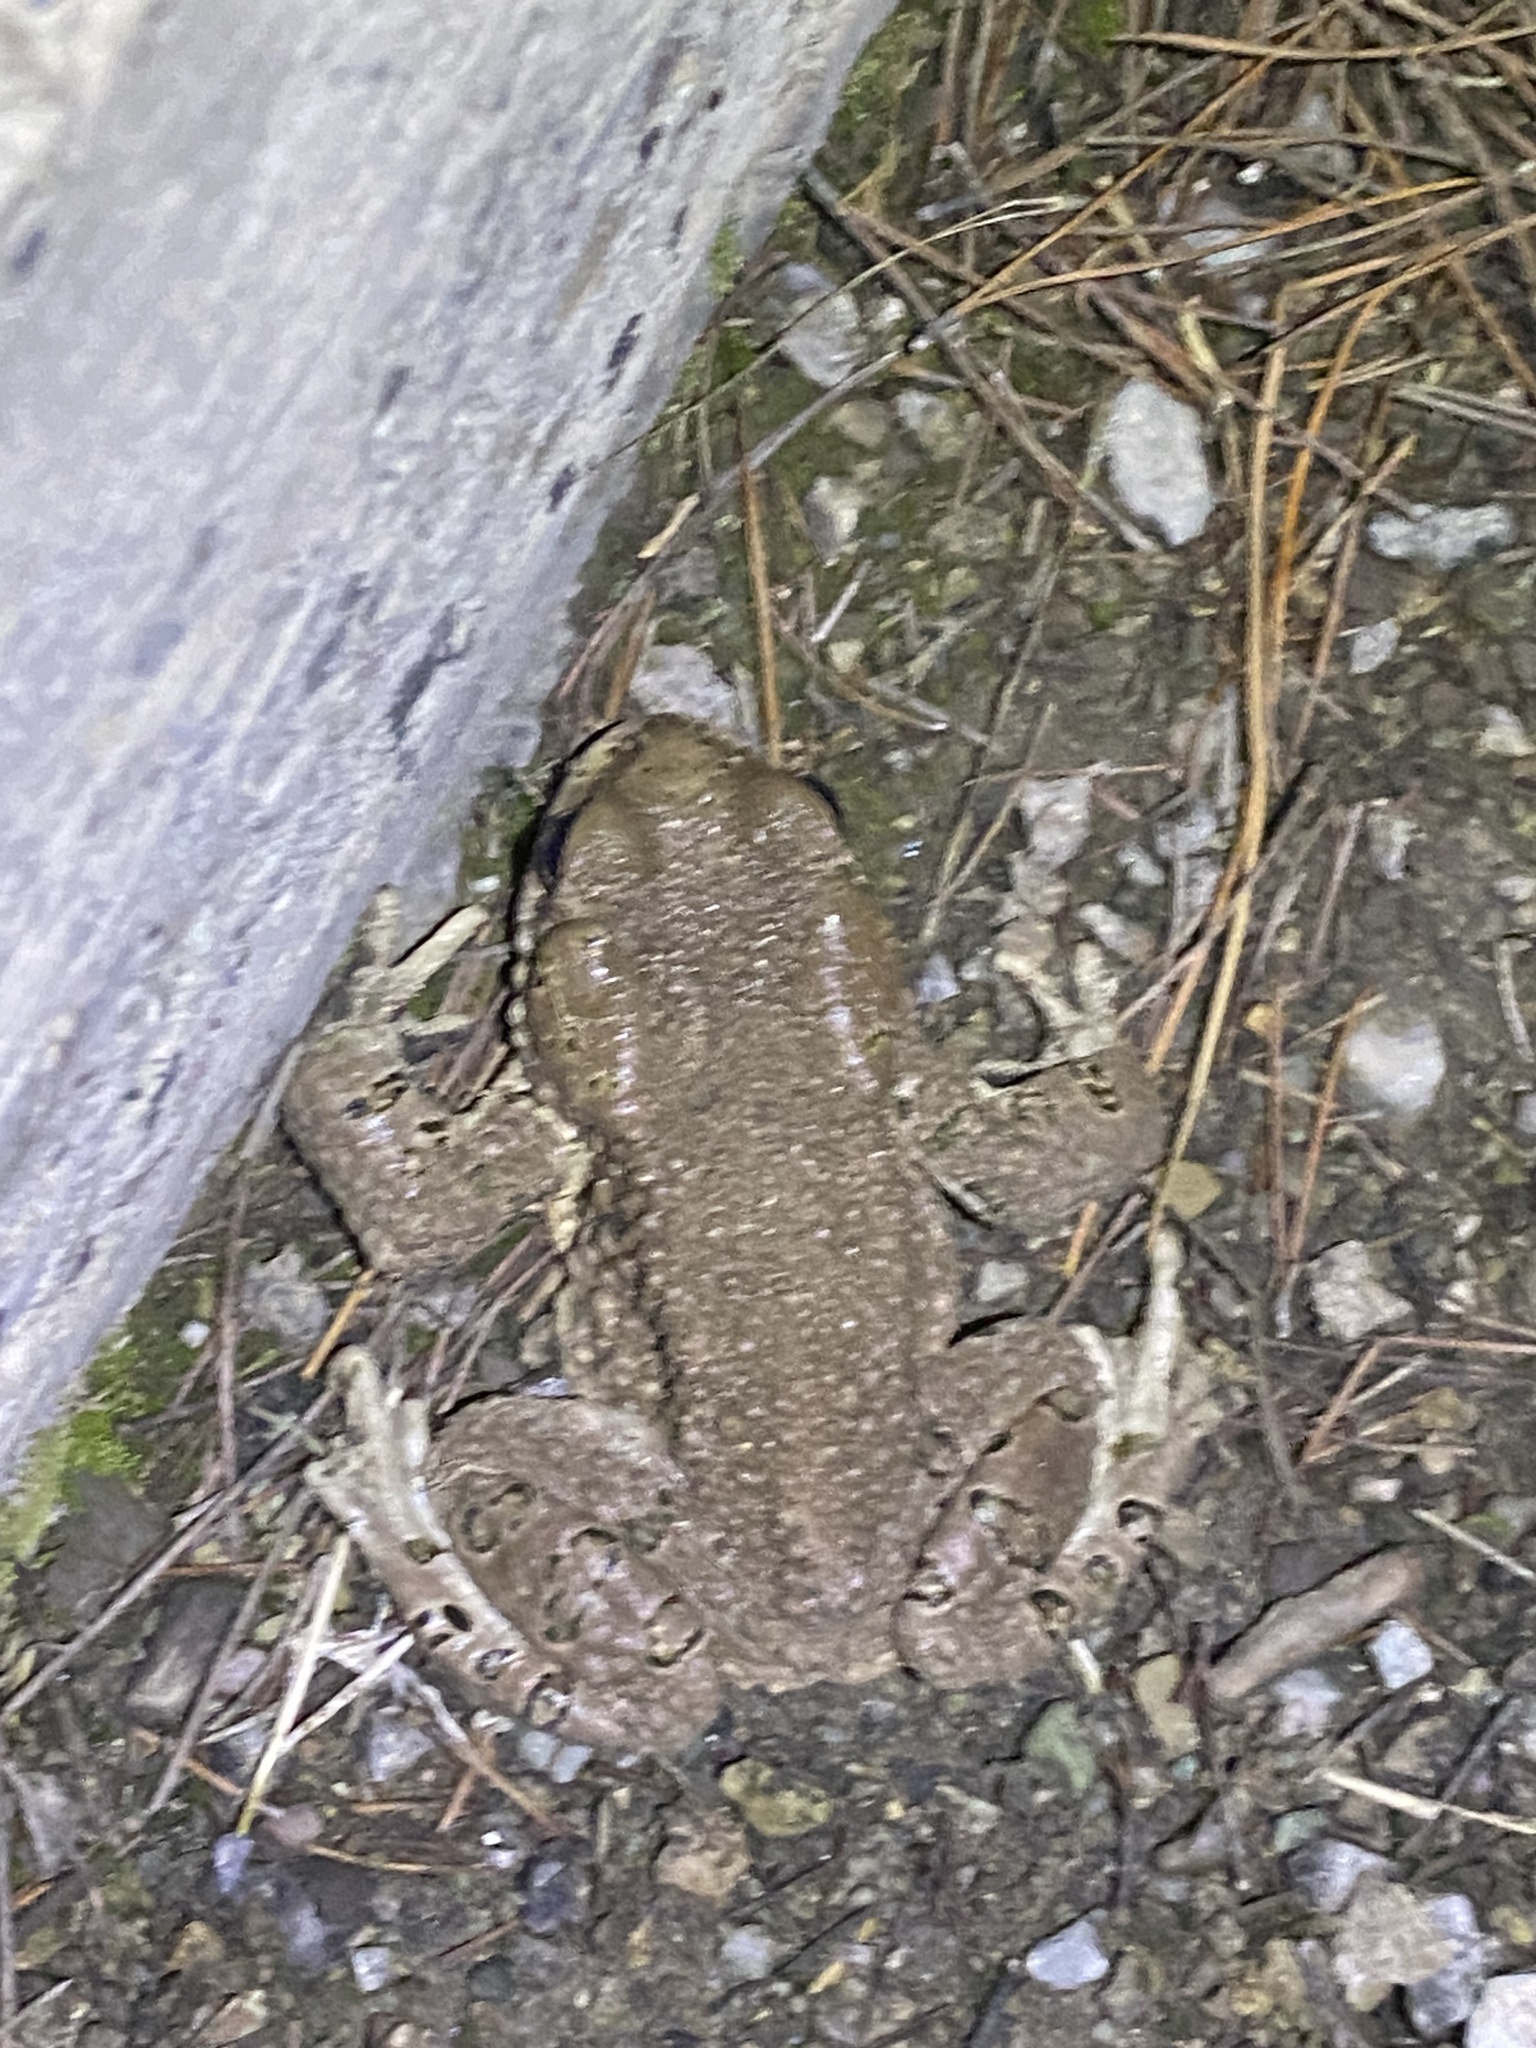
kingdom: Animalia
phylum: Chordata
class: Amphibia
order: Anura
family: Bufonidae
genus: Bufotes
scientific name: Bufotes viridis
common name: European green toad
